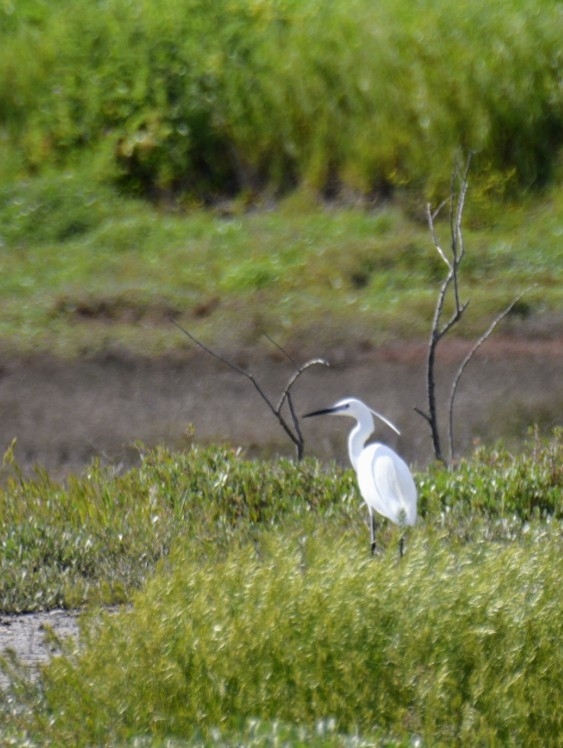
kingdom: Animalia
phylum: Chordata
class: Aves
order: Pelecaniformes
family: Ardeidae
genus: Egretta
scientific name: Egretta garzetta
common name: Little egret
